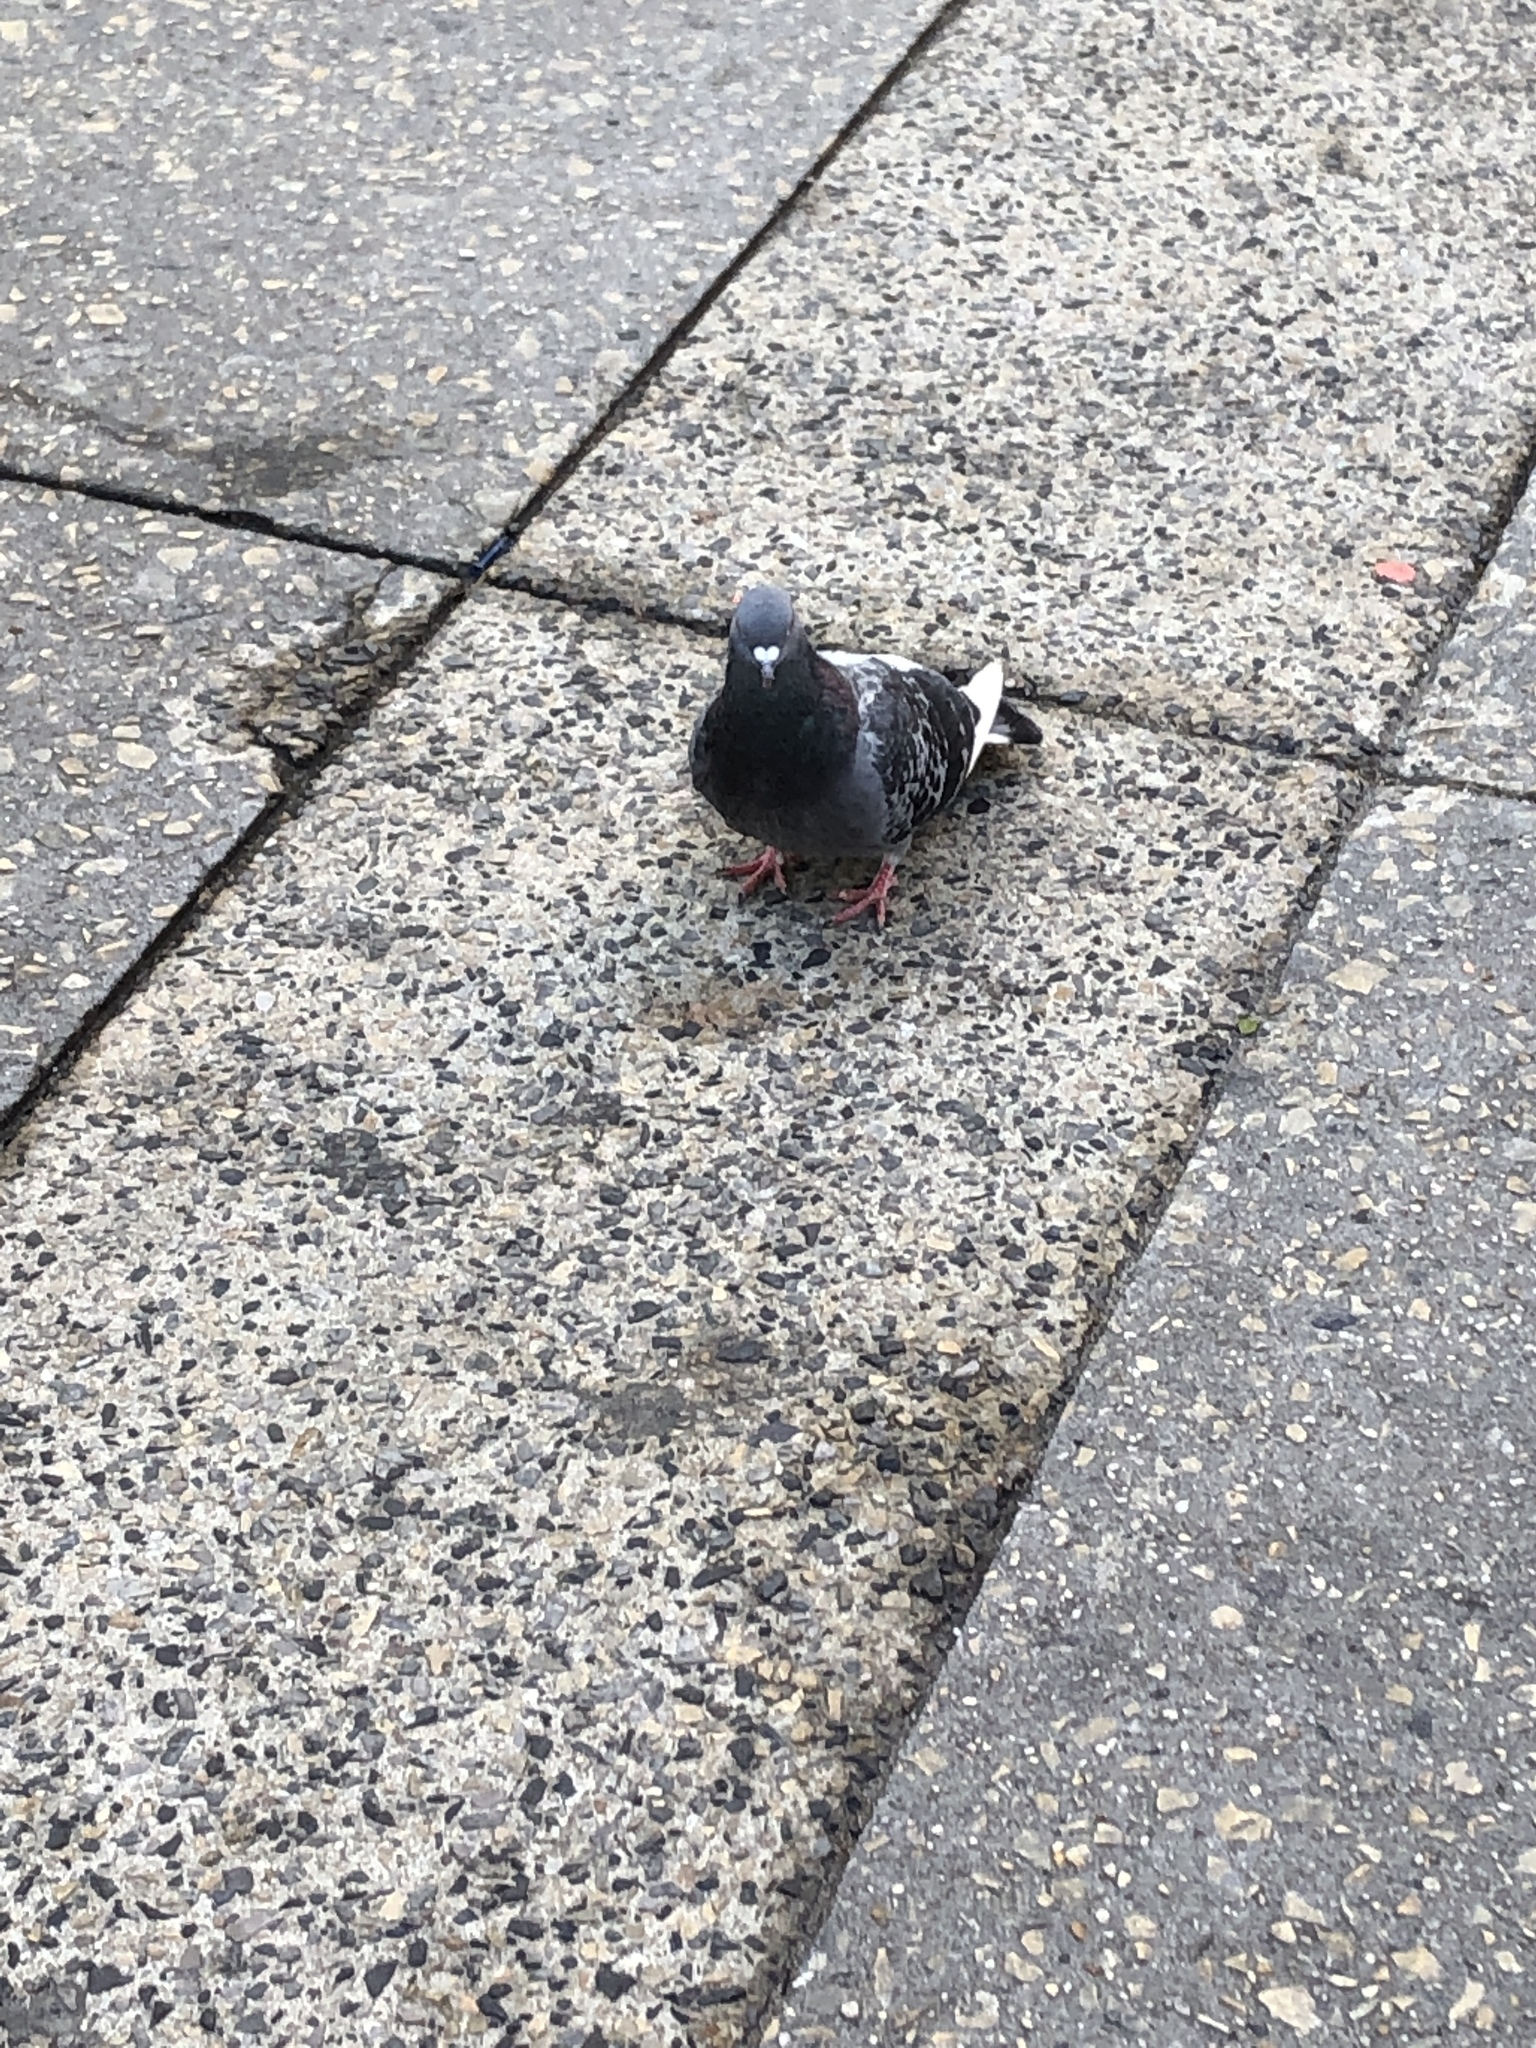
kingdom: Animalia
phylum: Chordata
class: Aves
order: Columbiformes
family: Columbidae
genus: Columba
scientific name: Columba livia
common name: Rock pigeon
